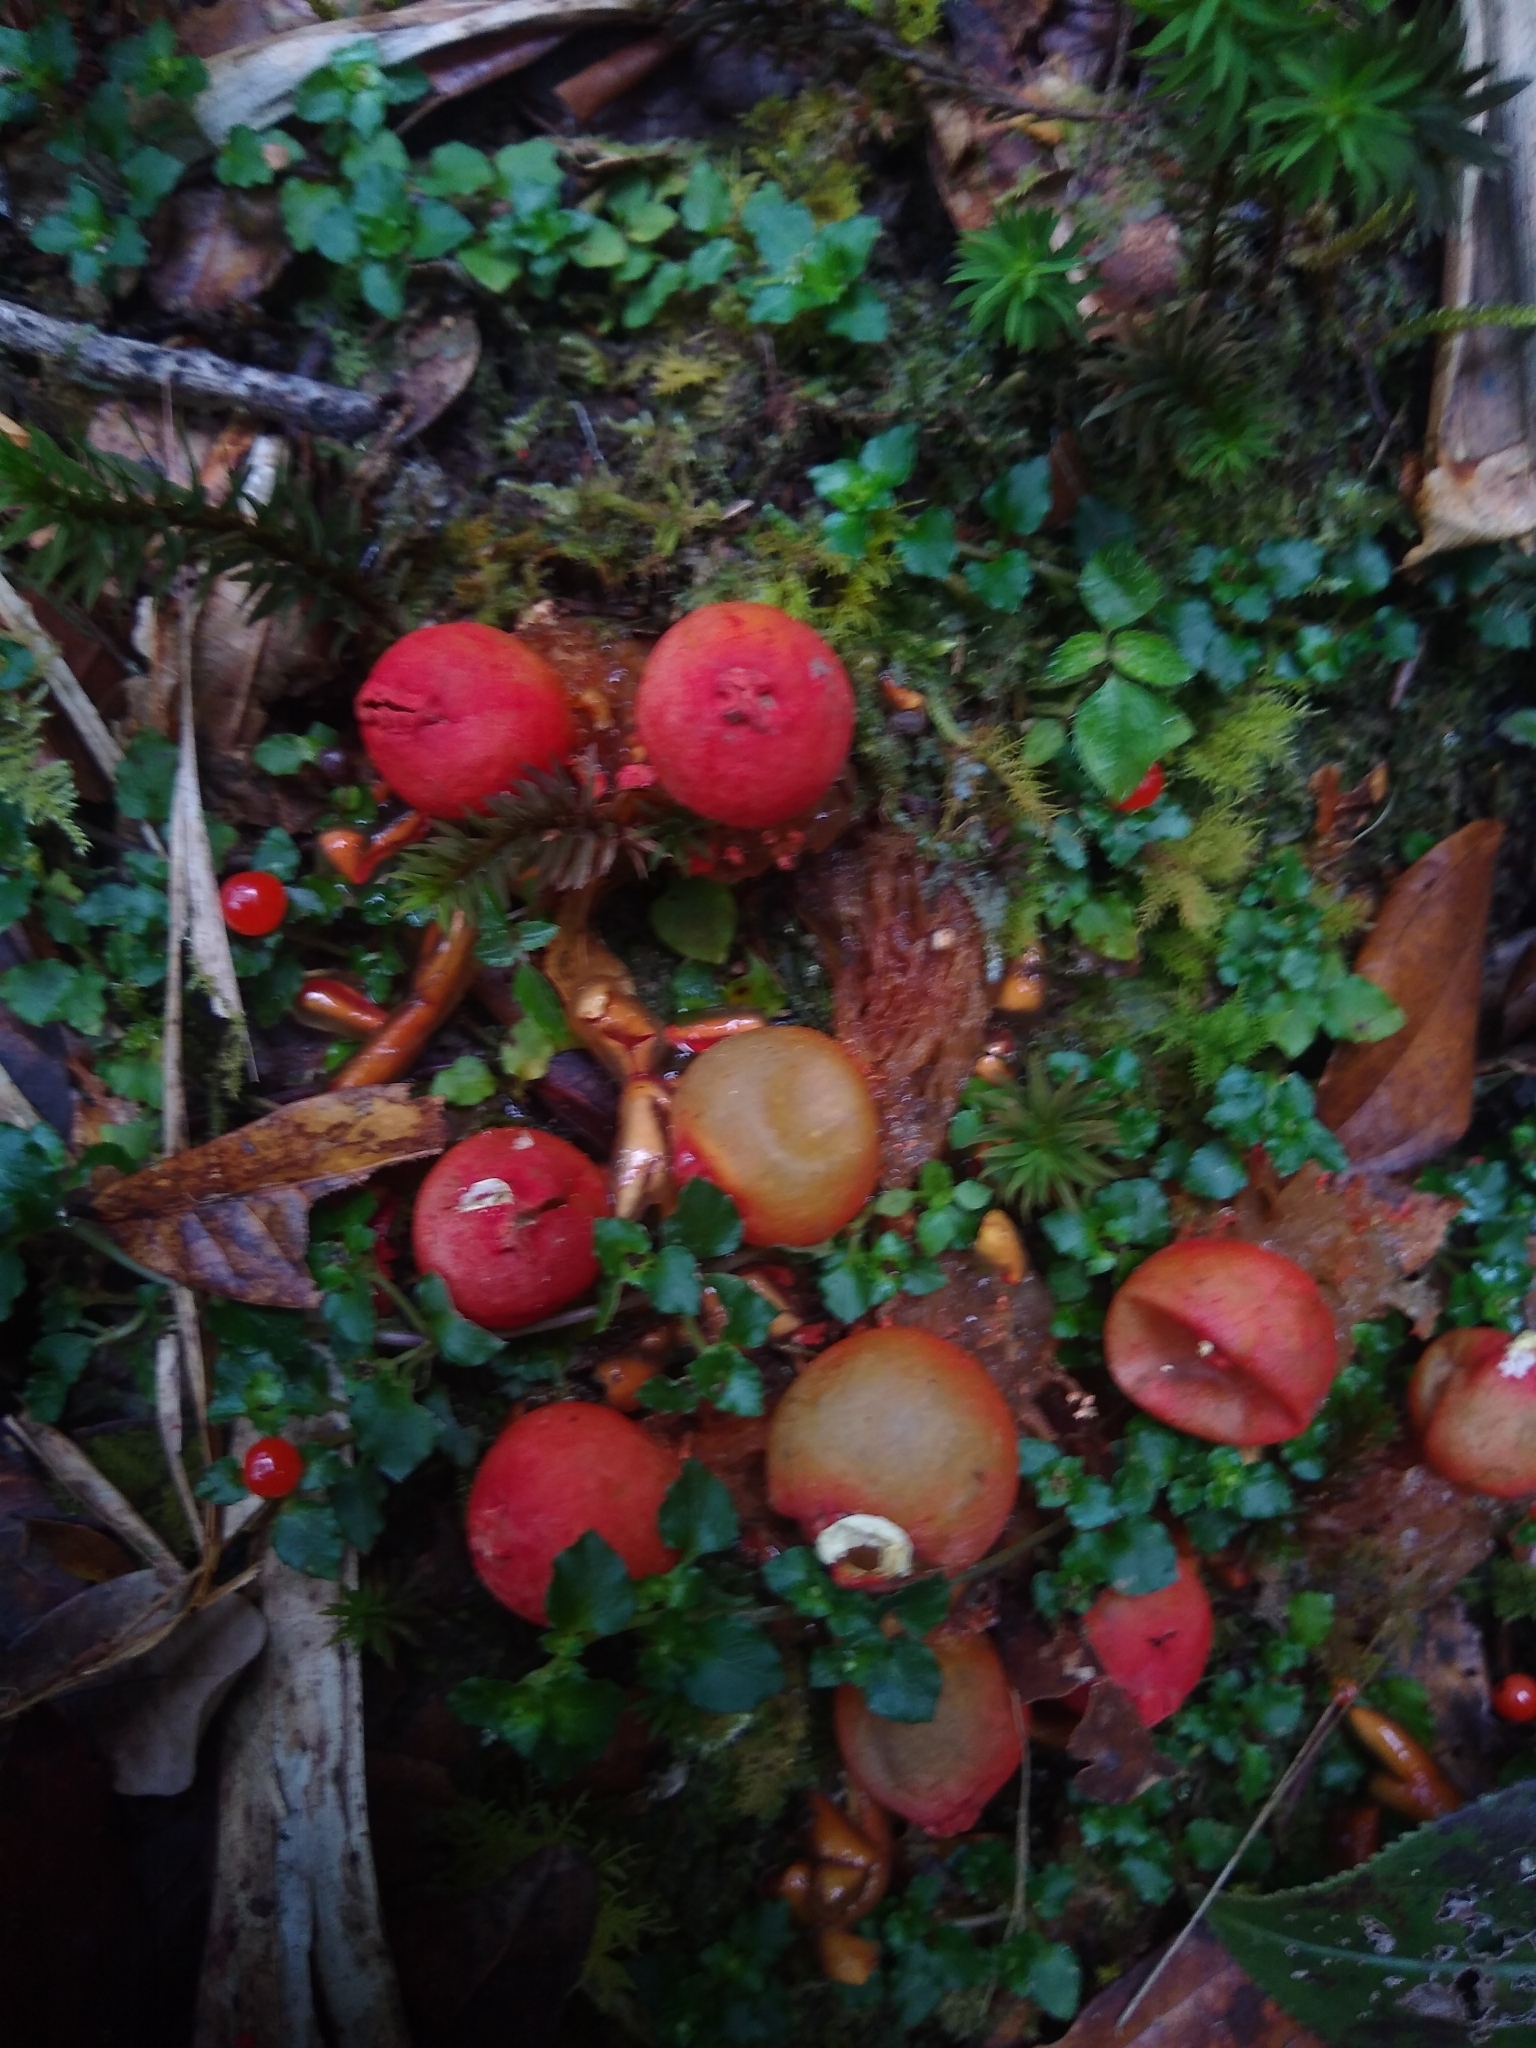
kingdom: Fungi
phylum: Basidiomycota
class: Agaricomycetes
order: Boletales
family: Calostomataceae
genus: Calostoma
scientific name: Calostoma cinnabarinum
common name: Stalked puffball-in-aspic
